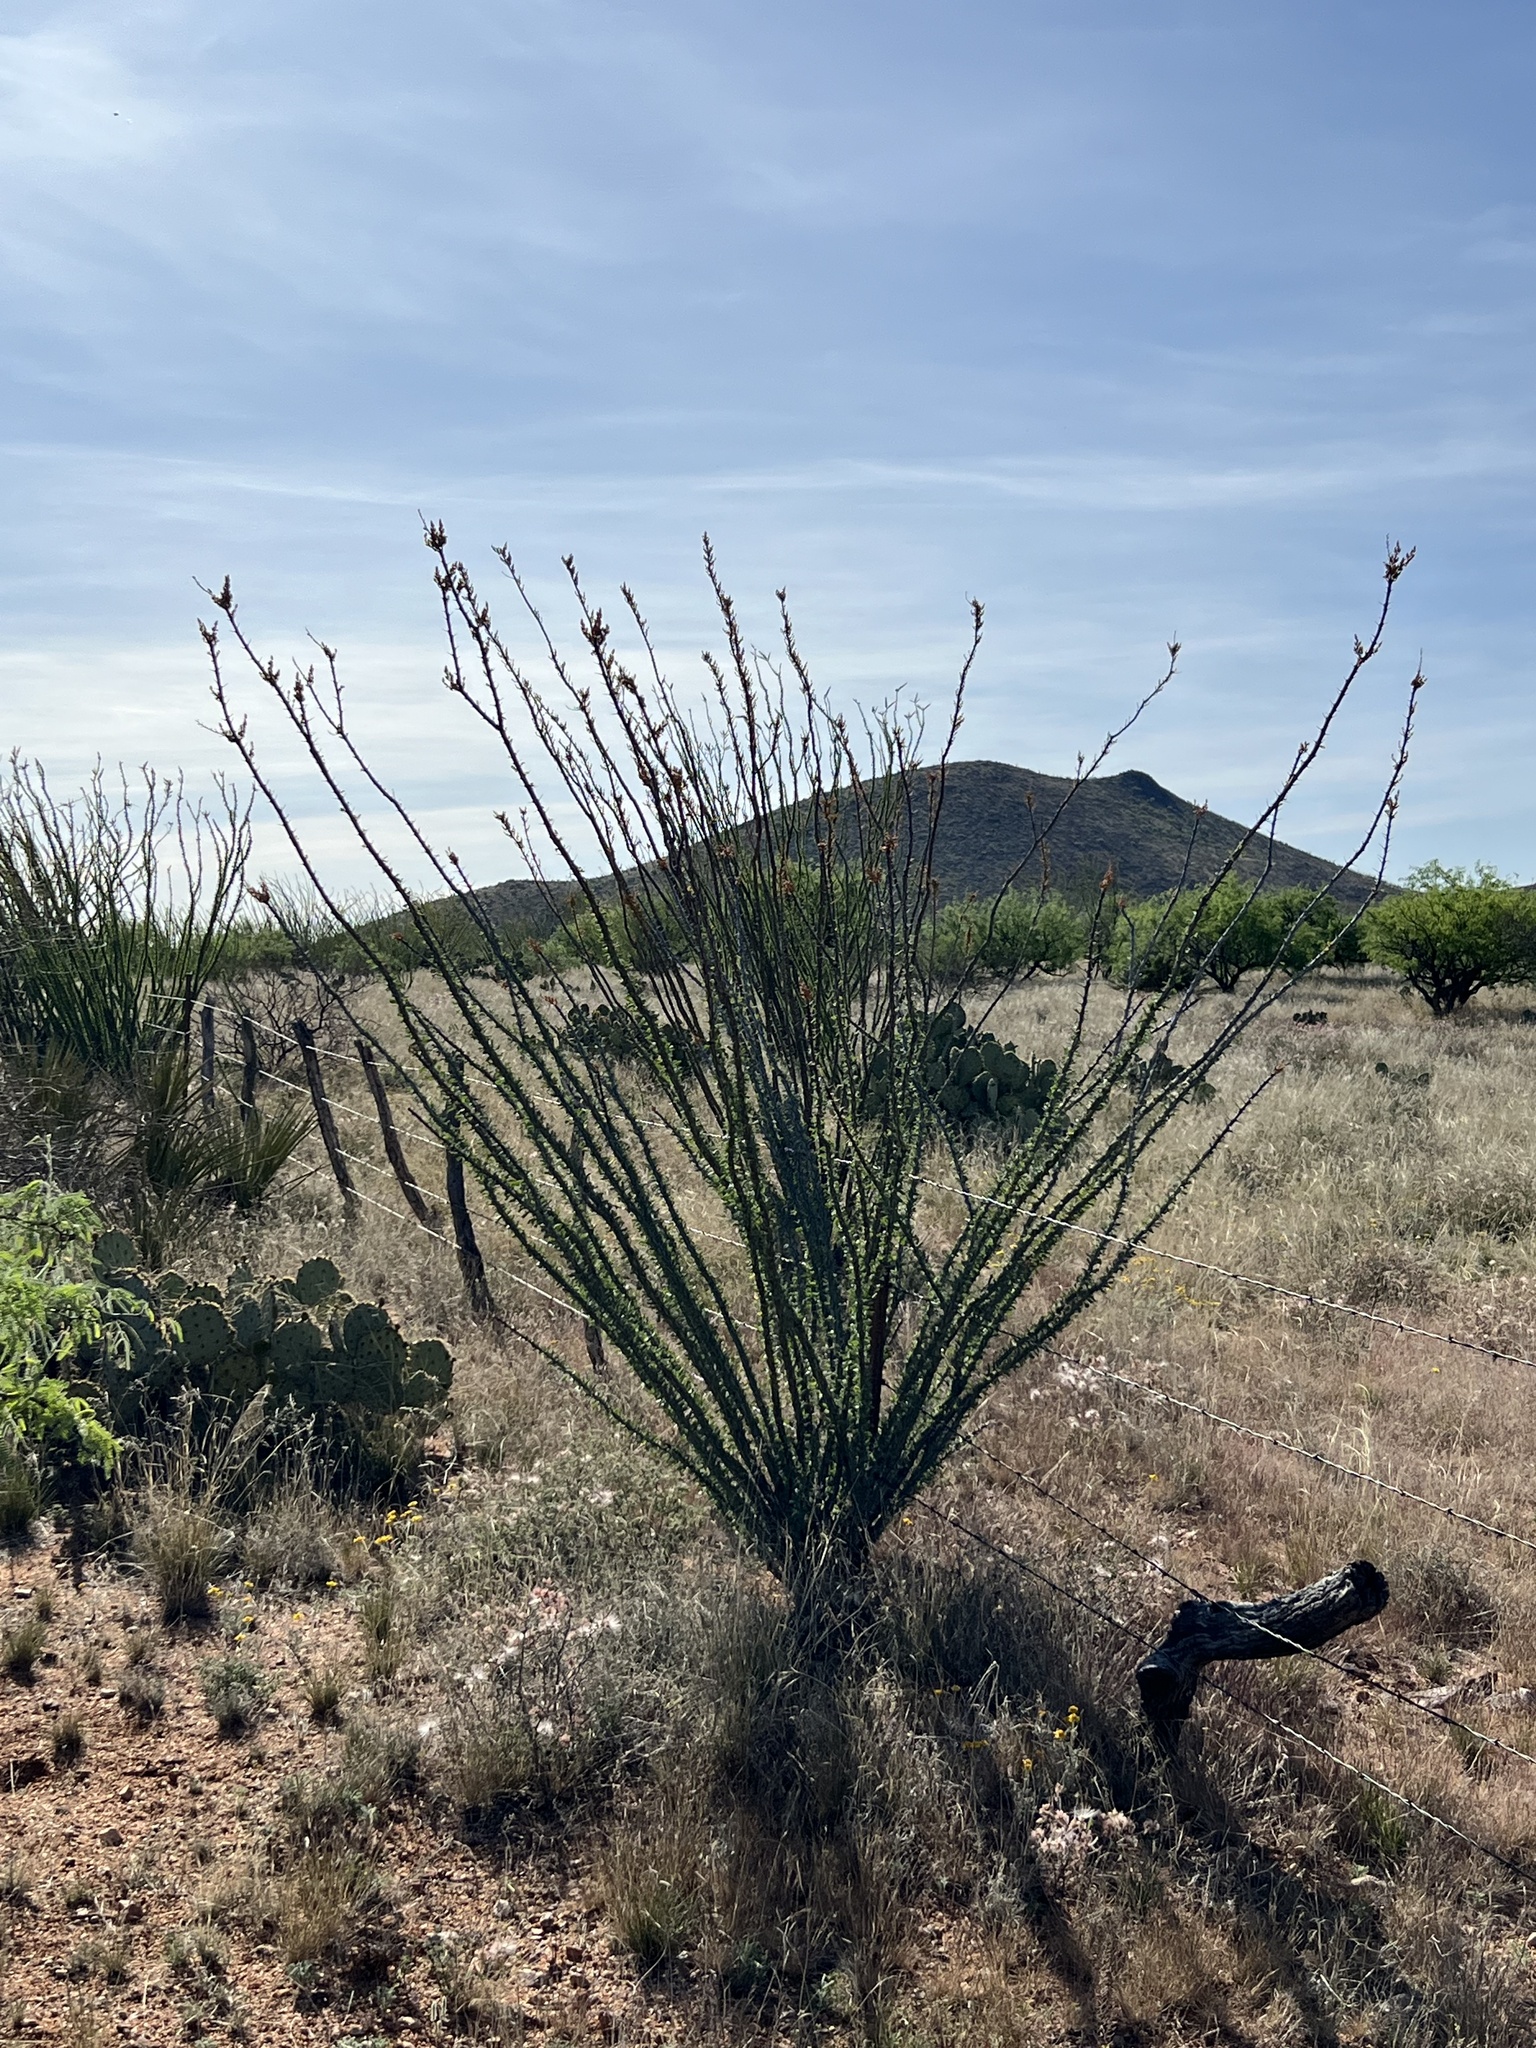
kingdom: Plantae
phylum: Tracheophyta
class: Magnoliopsida
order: Ericales
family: Fouquieriaceae
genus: Fouquieria
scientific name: Fouquieria splendens
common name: Vine-cactus
